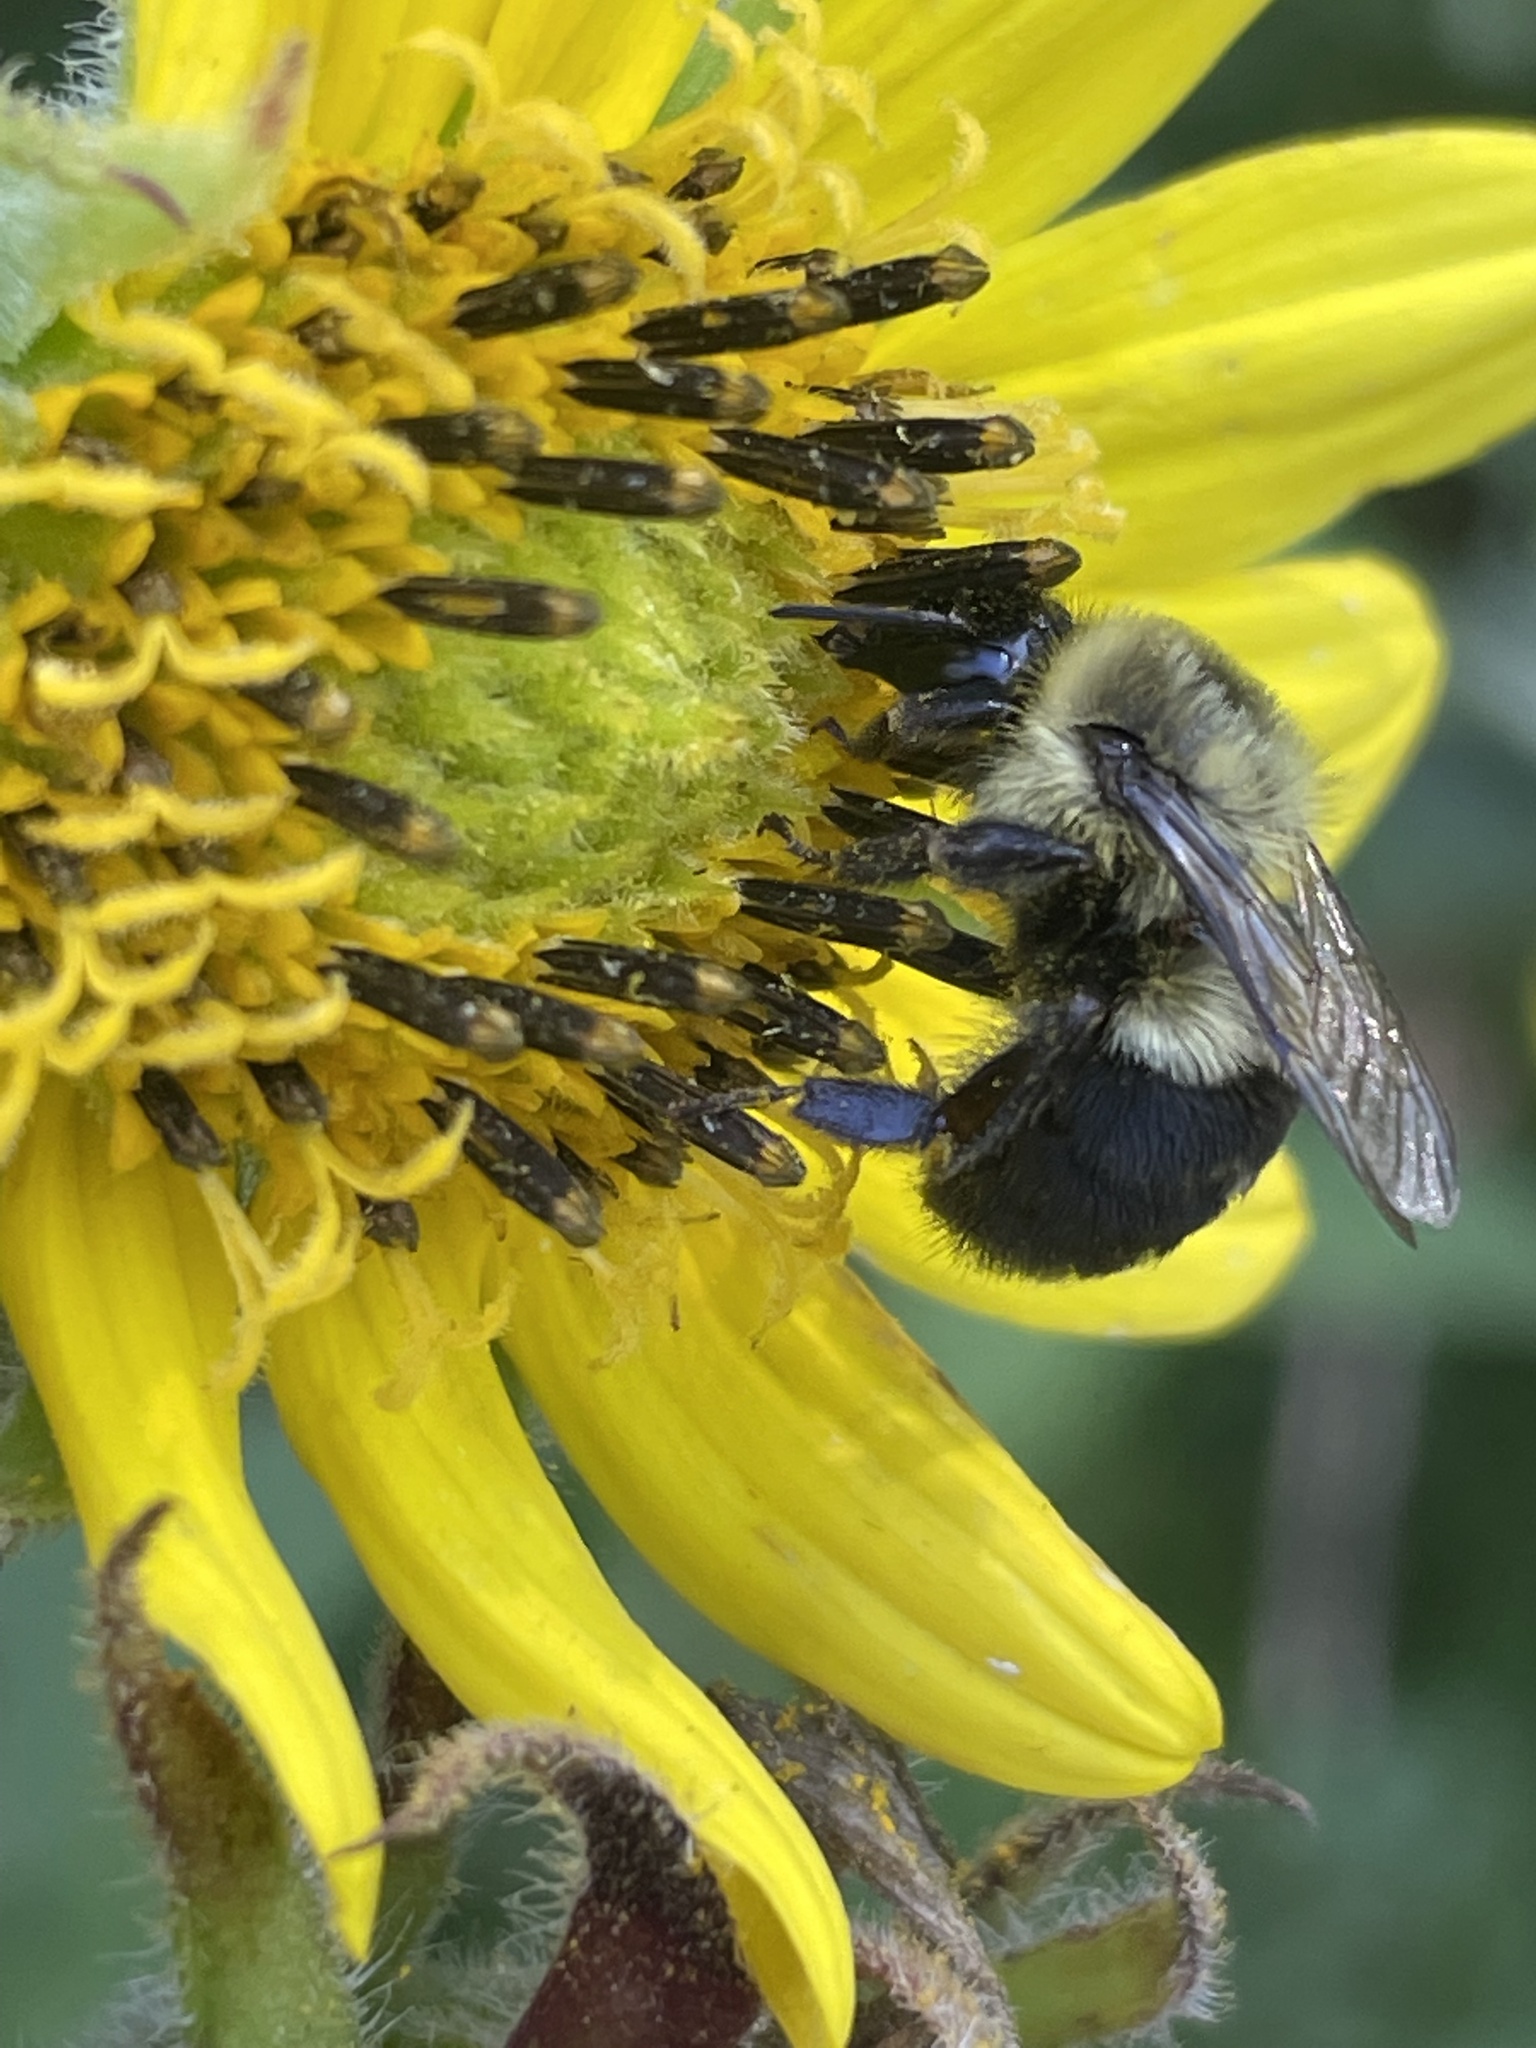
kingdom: Animalia
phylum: Arthropoda
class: Insecta
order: Hymenoptera
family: Apidae
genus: Bombus
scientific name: Bombus impatiens
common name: Common eastern bumble bee
